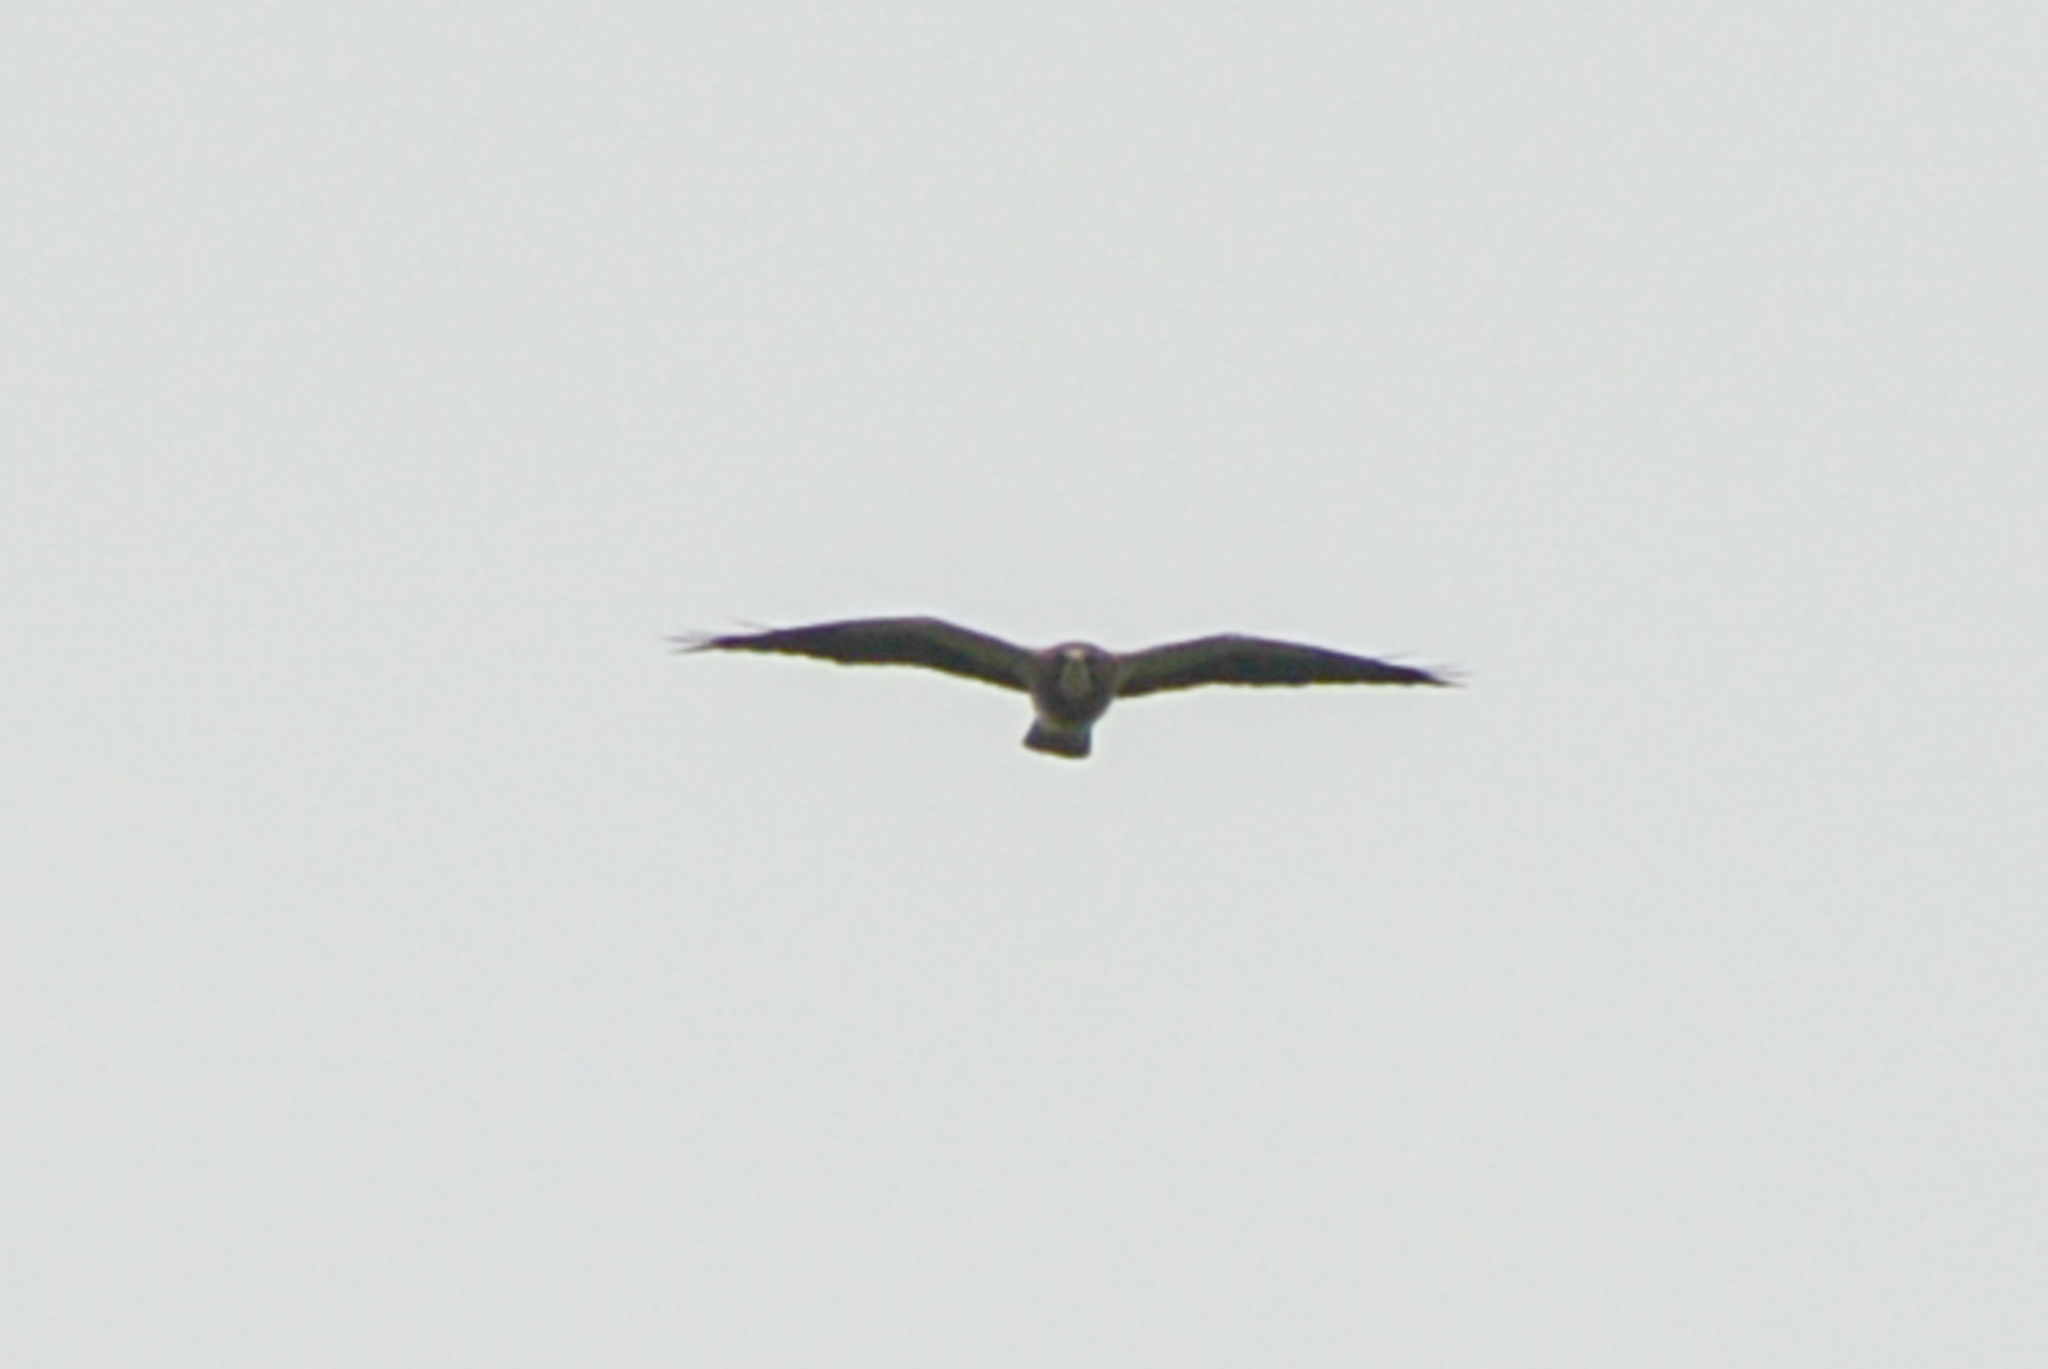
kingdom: Animalia
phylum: Chordata
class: Aves
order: Accipitriformes
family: Accipitridae
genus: Buteo
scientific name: Buteo swainsoni
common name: Swainson's hawk
